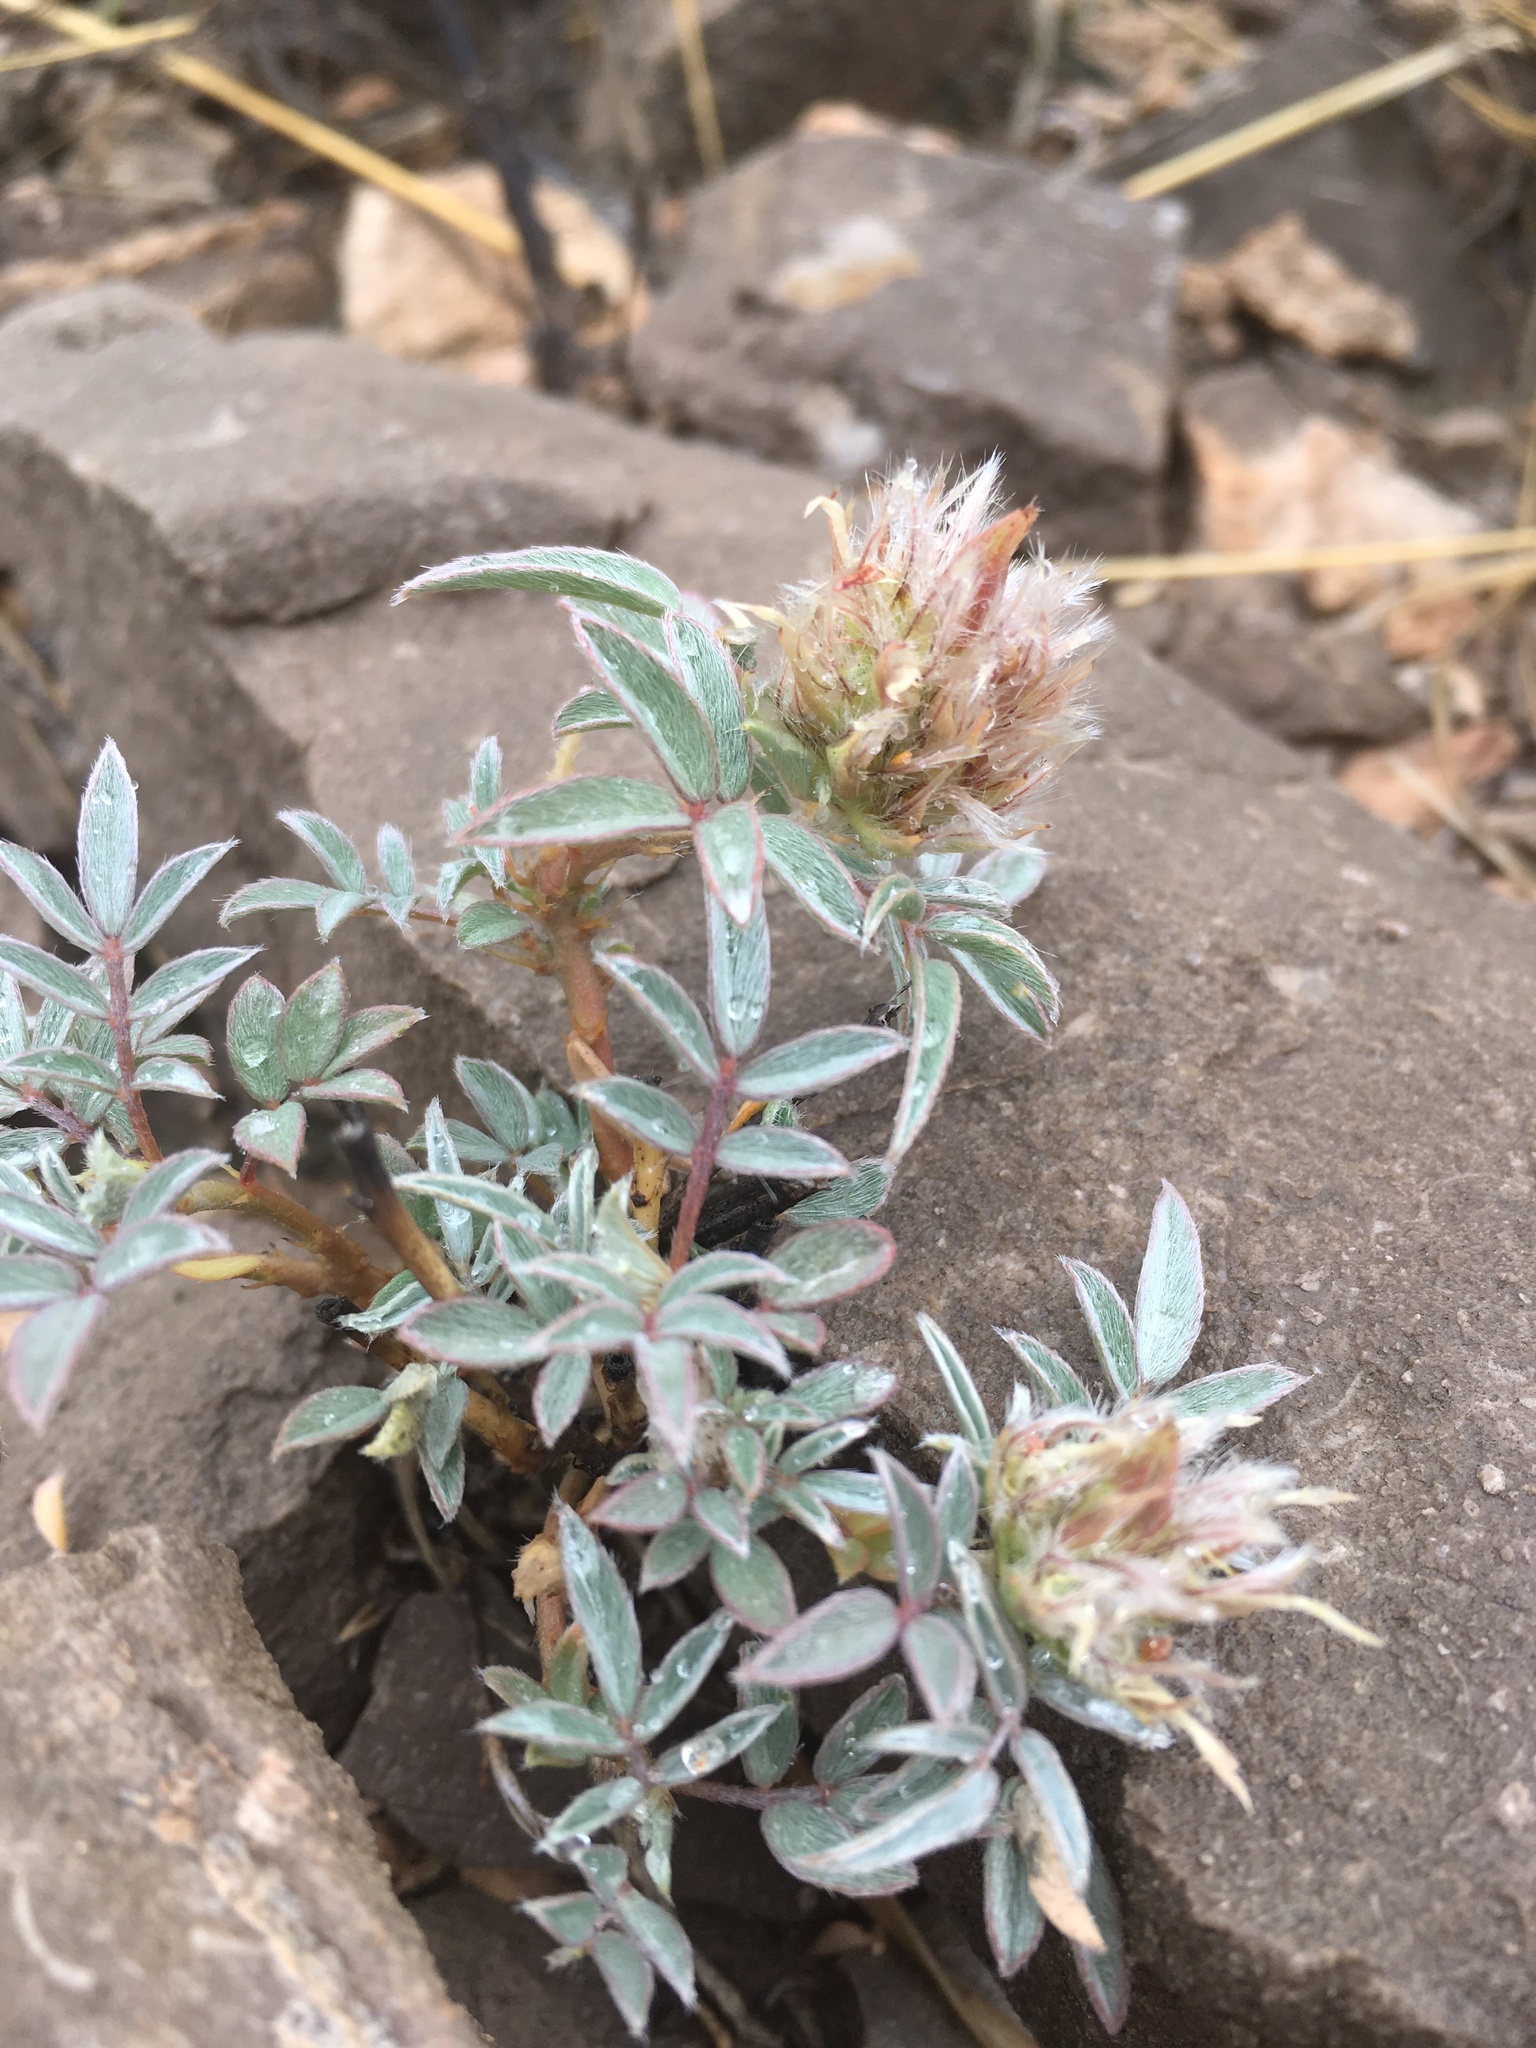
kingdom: Plantae
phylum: Tracheophyta
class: Magnoliopsida
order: Fabales
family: Fabaceae
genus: Dalea
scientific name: Dalea wrightii
